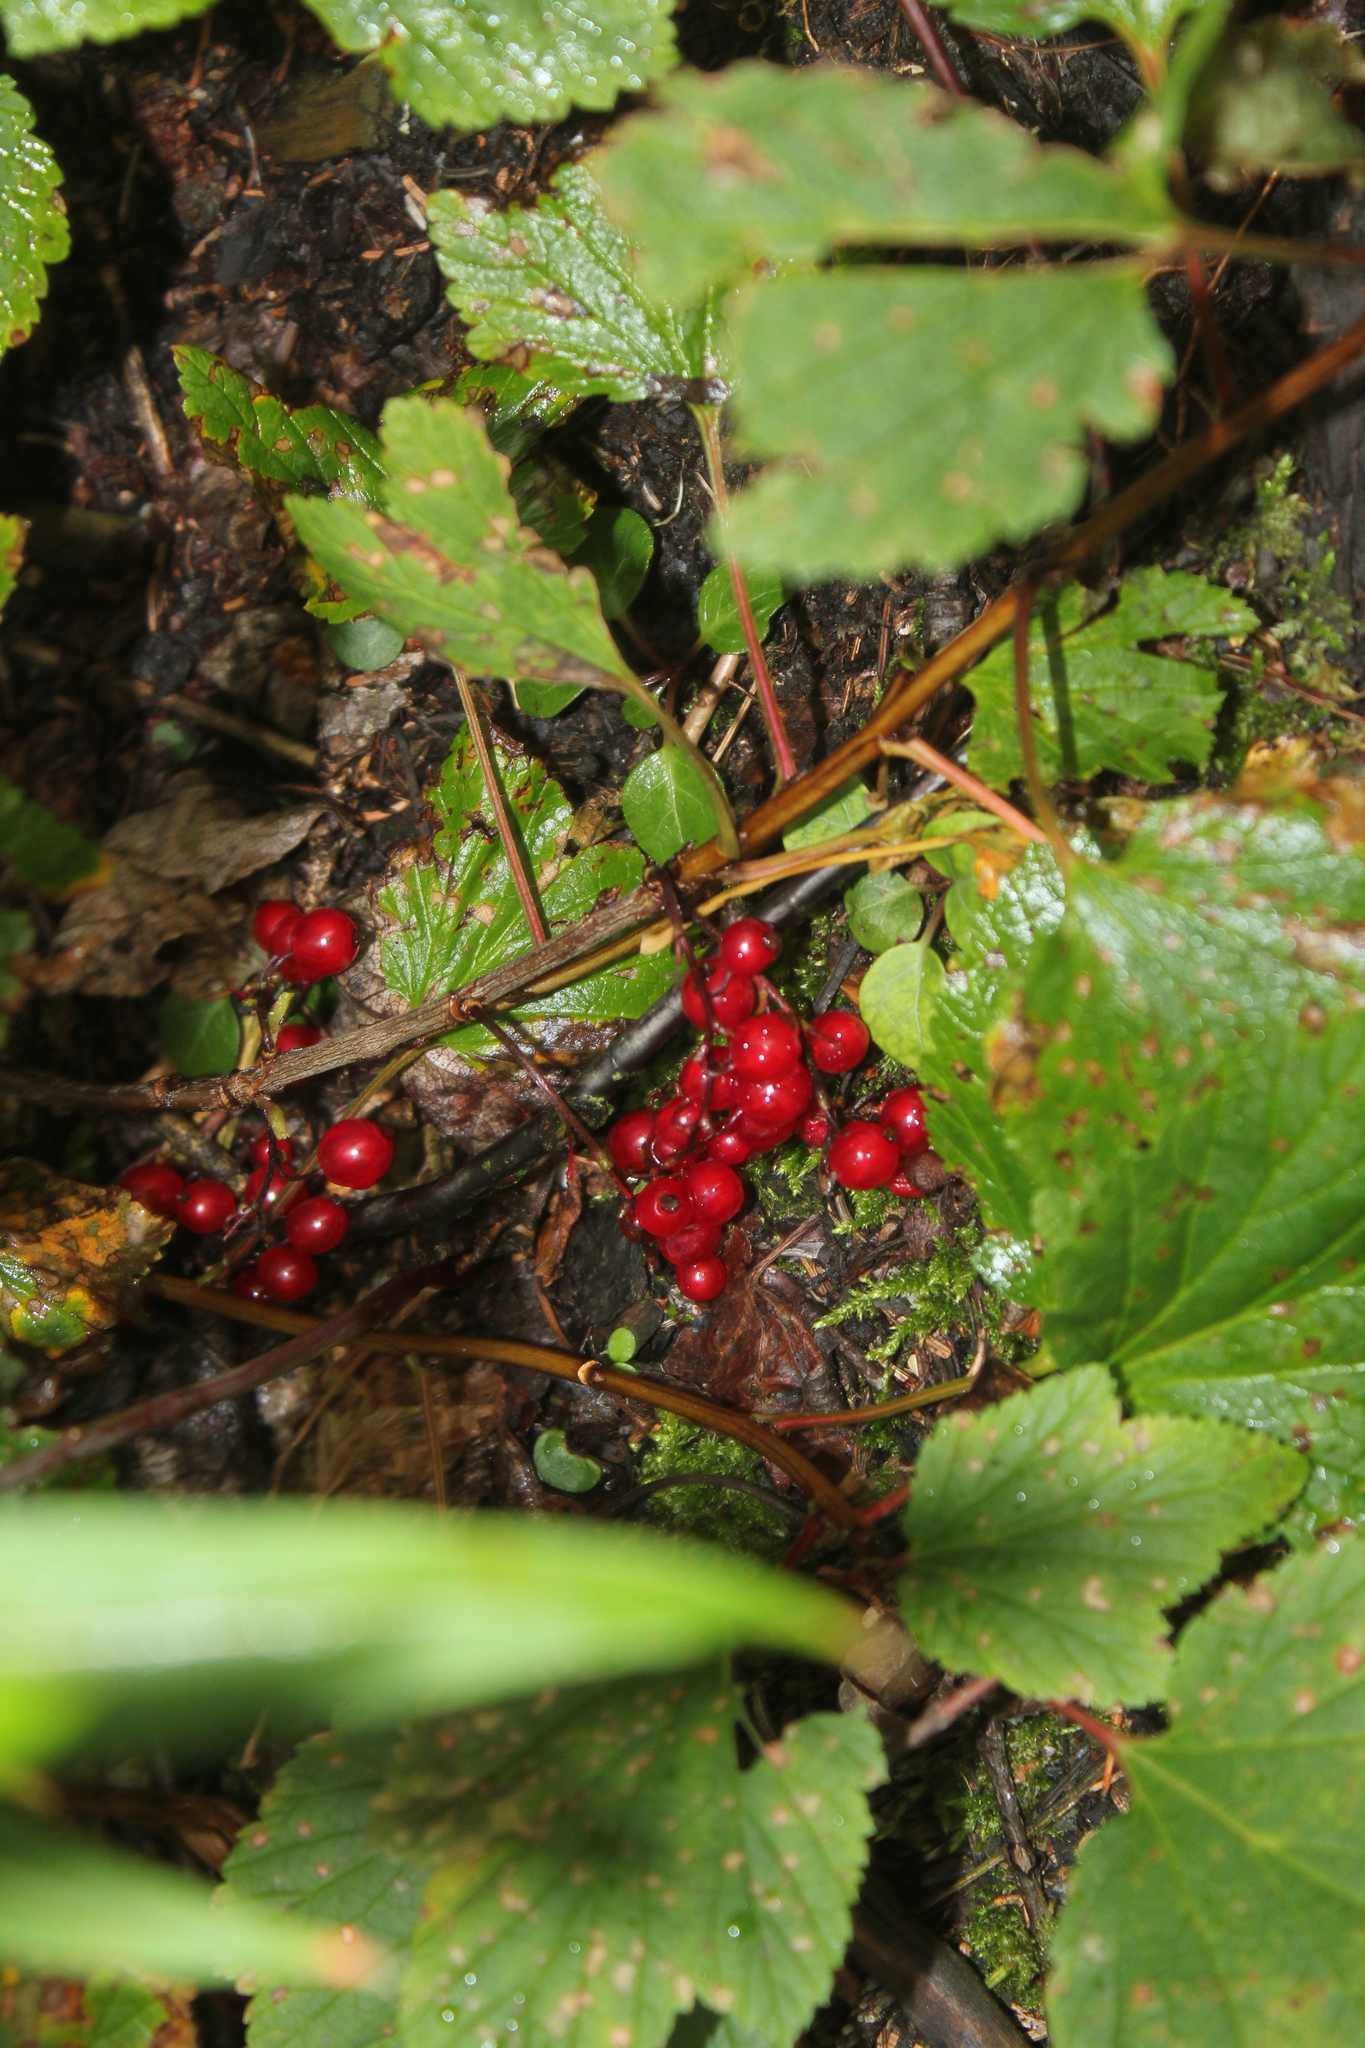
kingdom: Plantae
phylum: Tracheophyta
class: Magnoliopsida
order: Saxifragales
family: Grossulariaceae
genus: Ribes
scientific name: Ribes triste
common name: Swamp red currant
